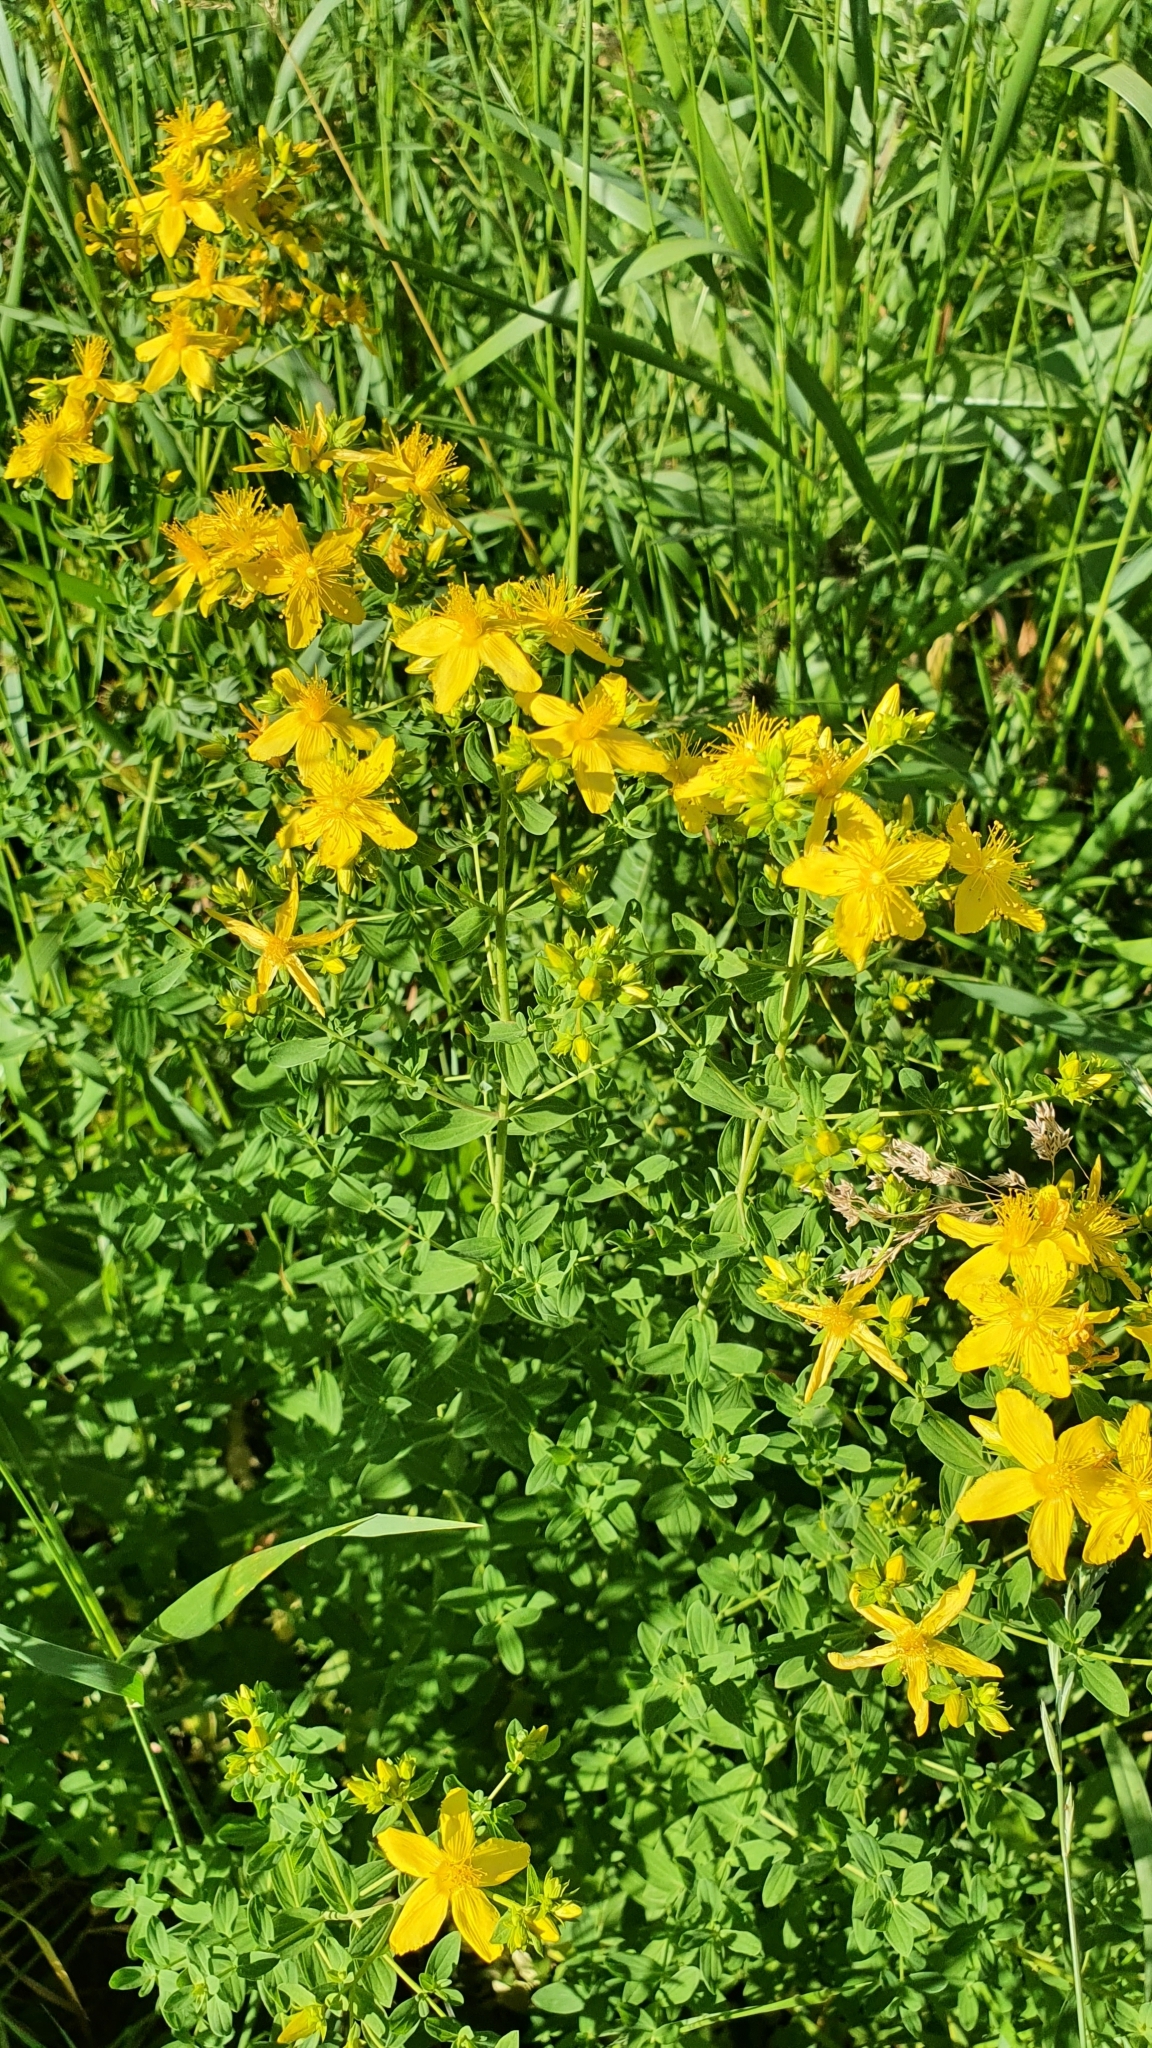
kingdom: Plantae
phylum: Tracheophyta
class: Magnoliopsida
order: Malpighiales
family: Hypericaceae
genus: Hypericum
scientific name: Hypericum perforatum
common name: Common st. johnswort
